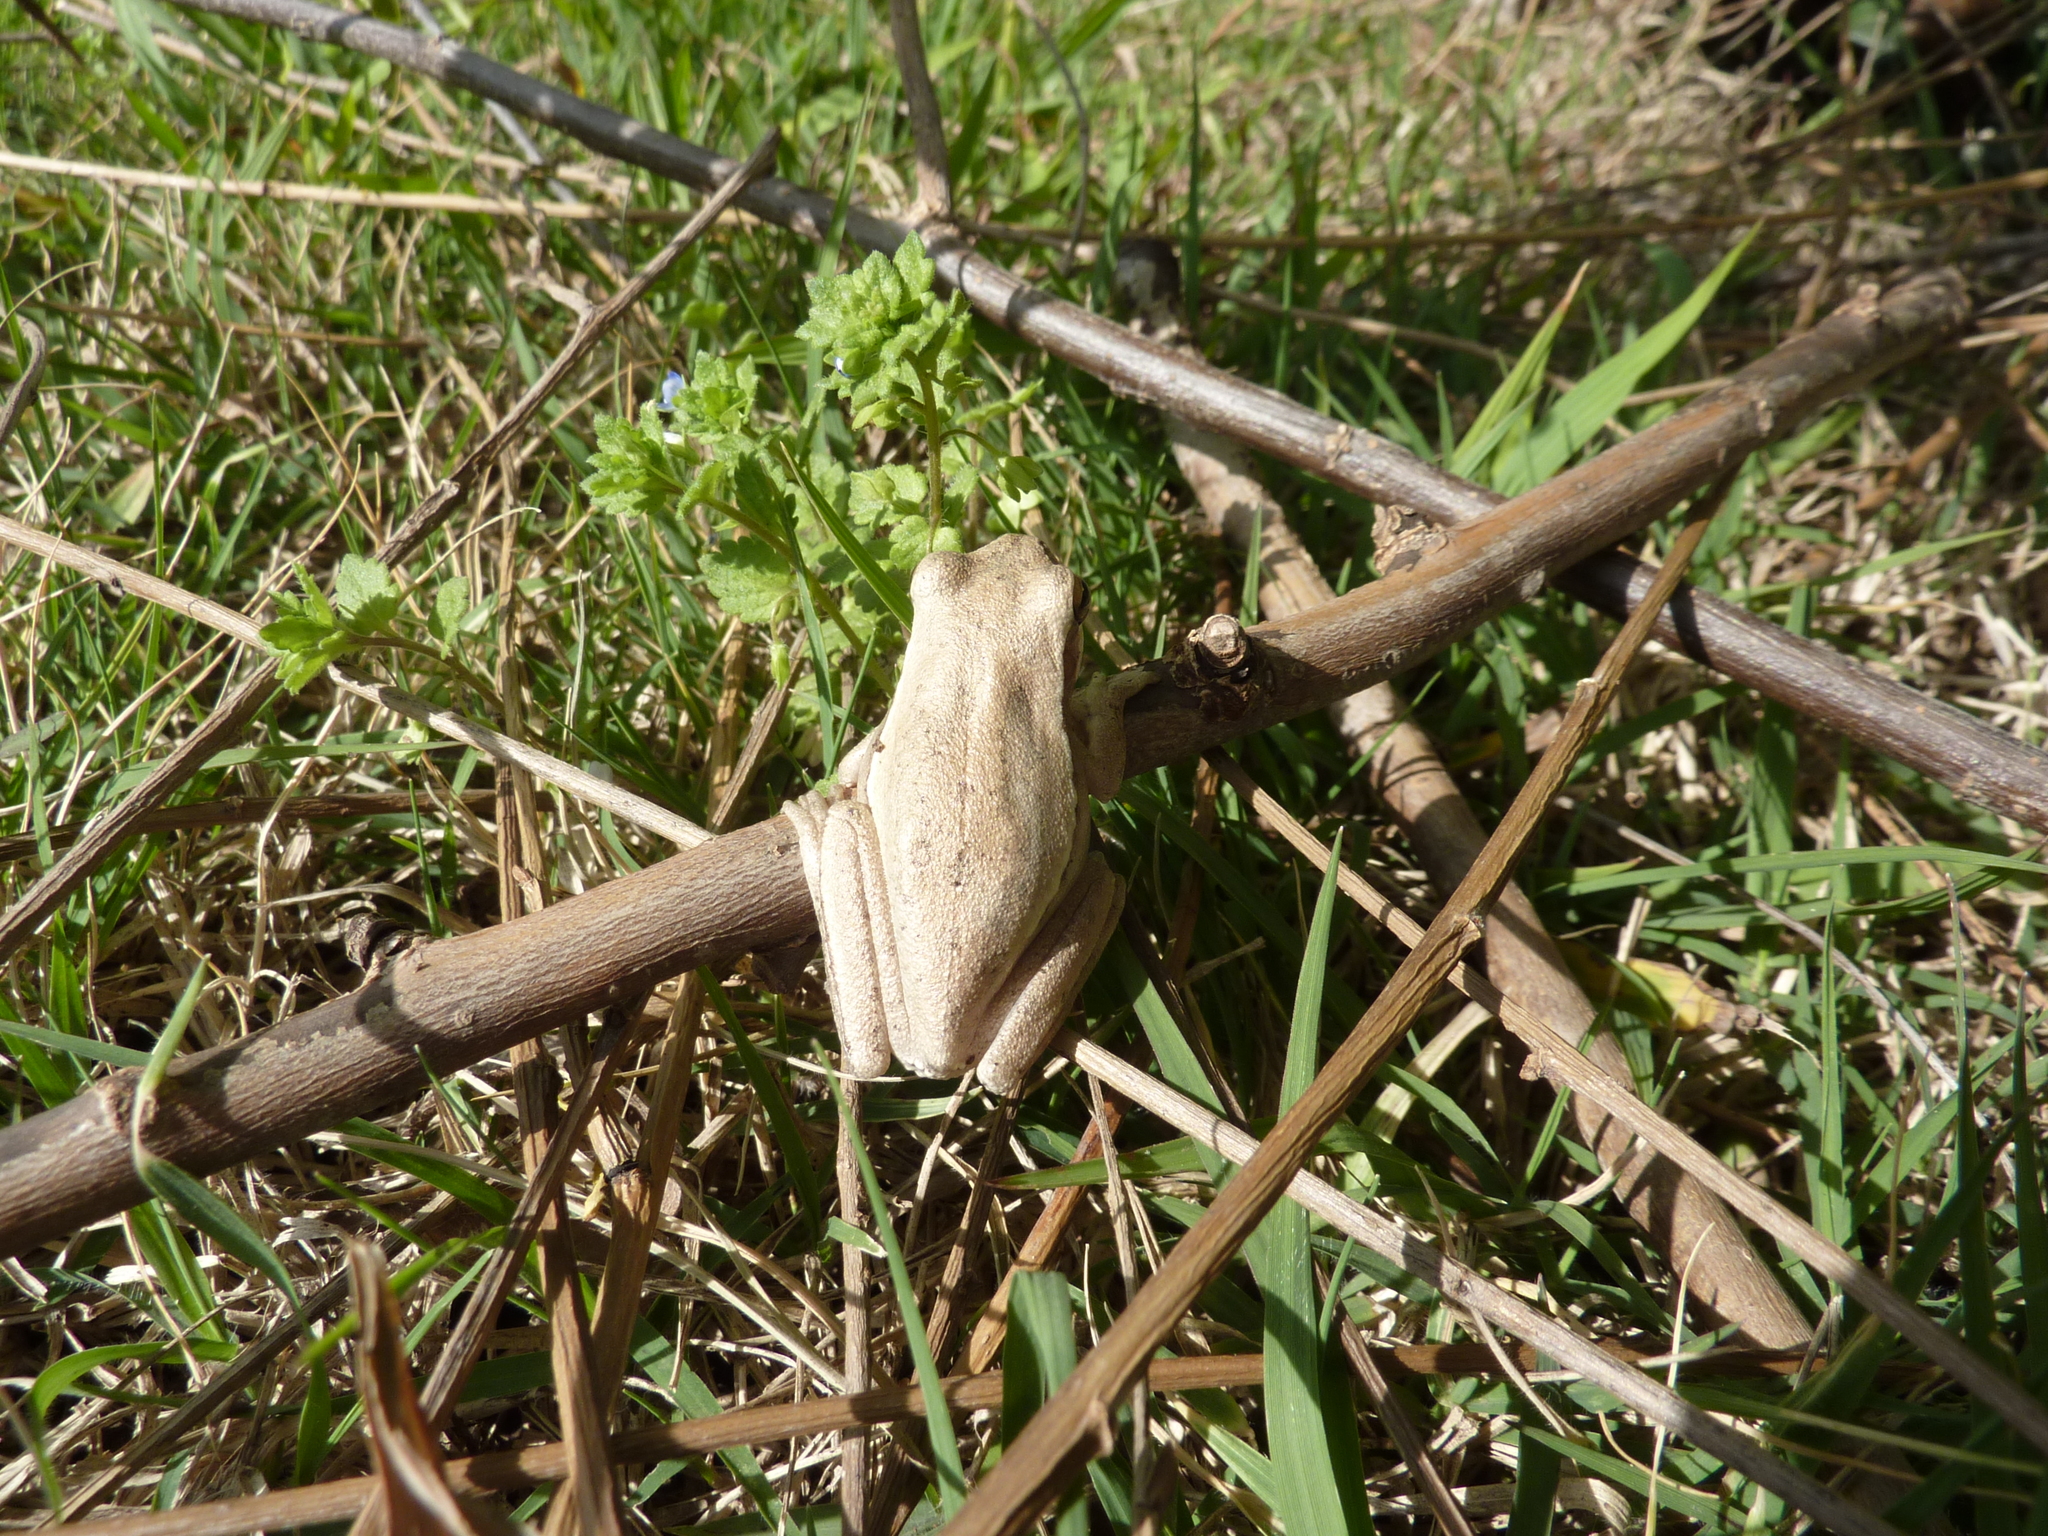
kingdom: Animalia
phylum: Chordata
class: Amphibia
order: Anura
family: Hylidae
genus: Boana
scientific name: Boana pulchella
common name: Montevideo treefrog
